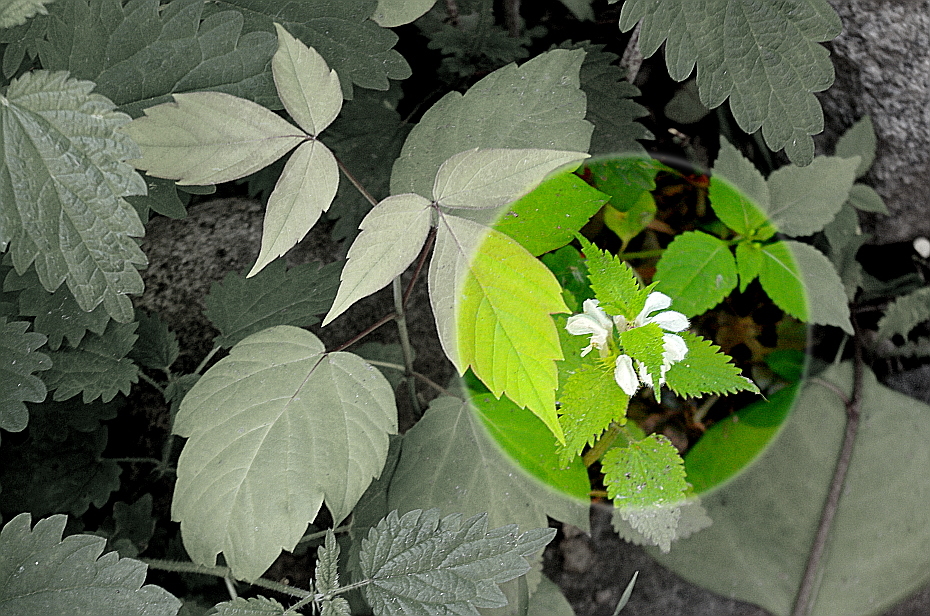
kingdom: Plantae
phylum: Tracheophyta
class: Magnoliopsida
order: Lamiales
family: Lamiaceae
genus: Lamium
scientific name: Lamium album
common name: White dead-nettle
